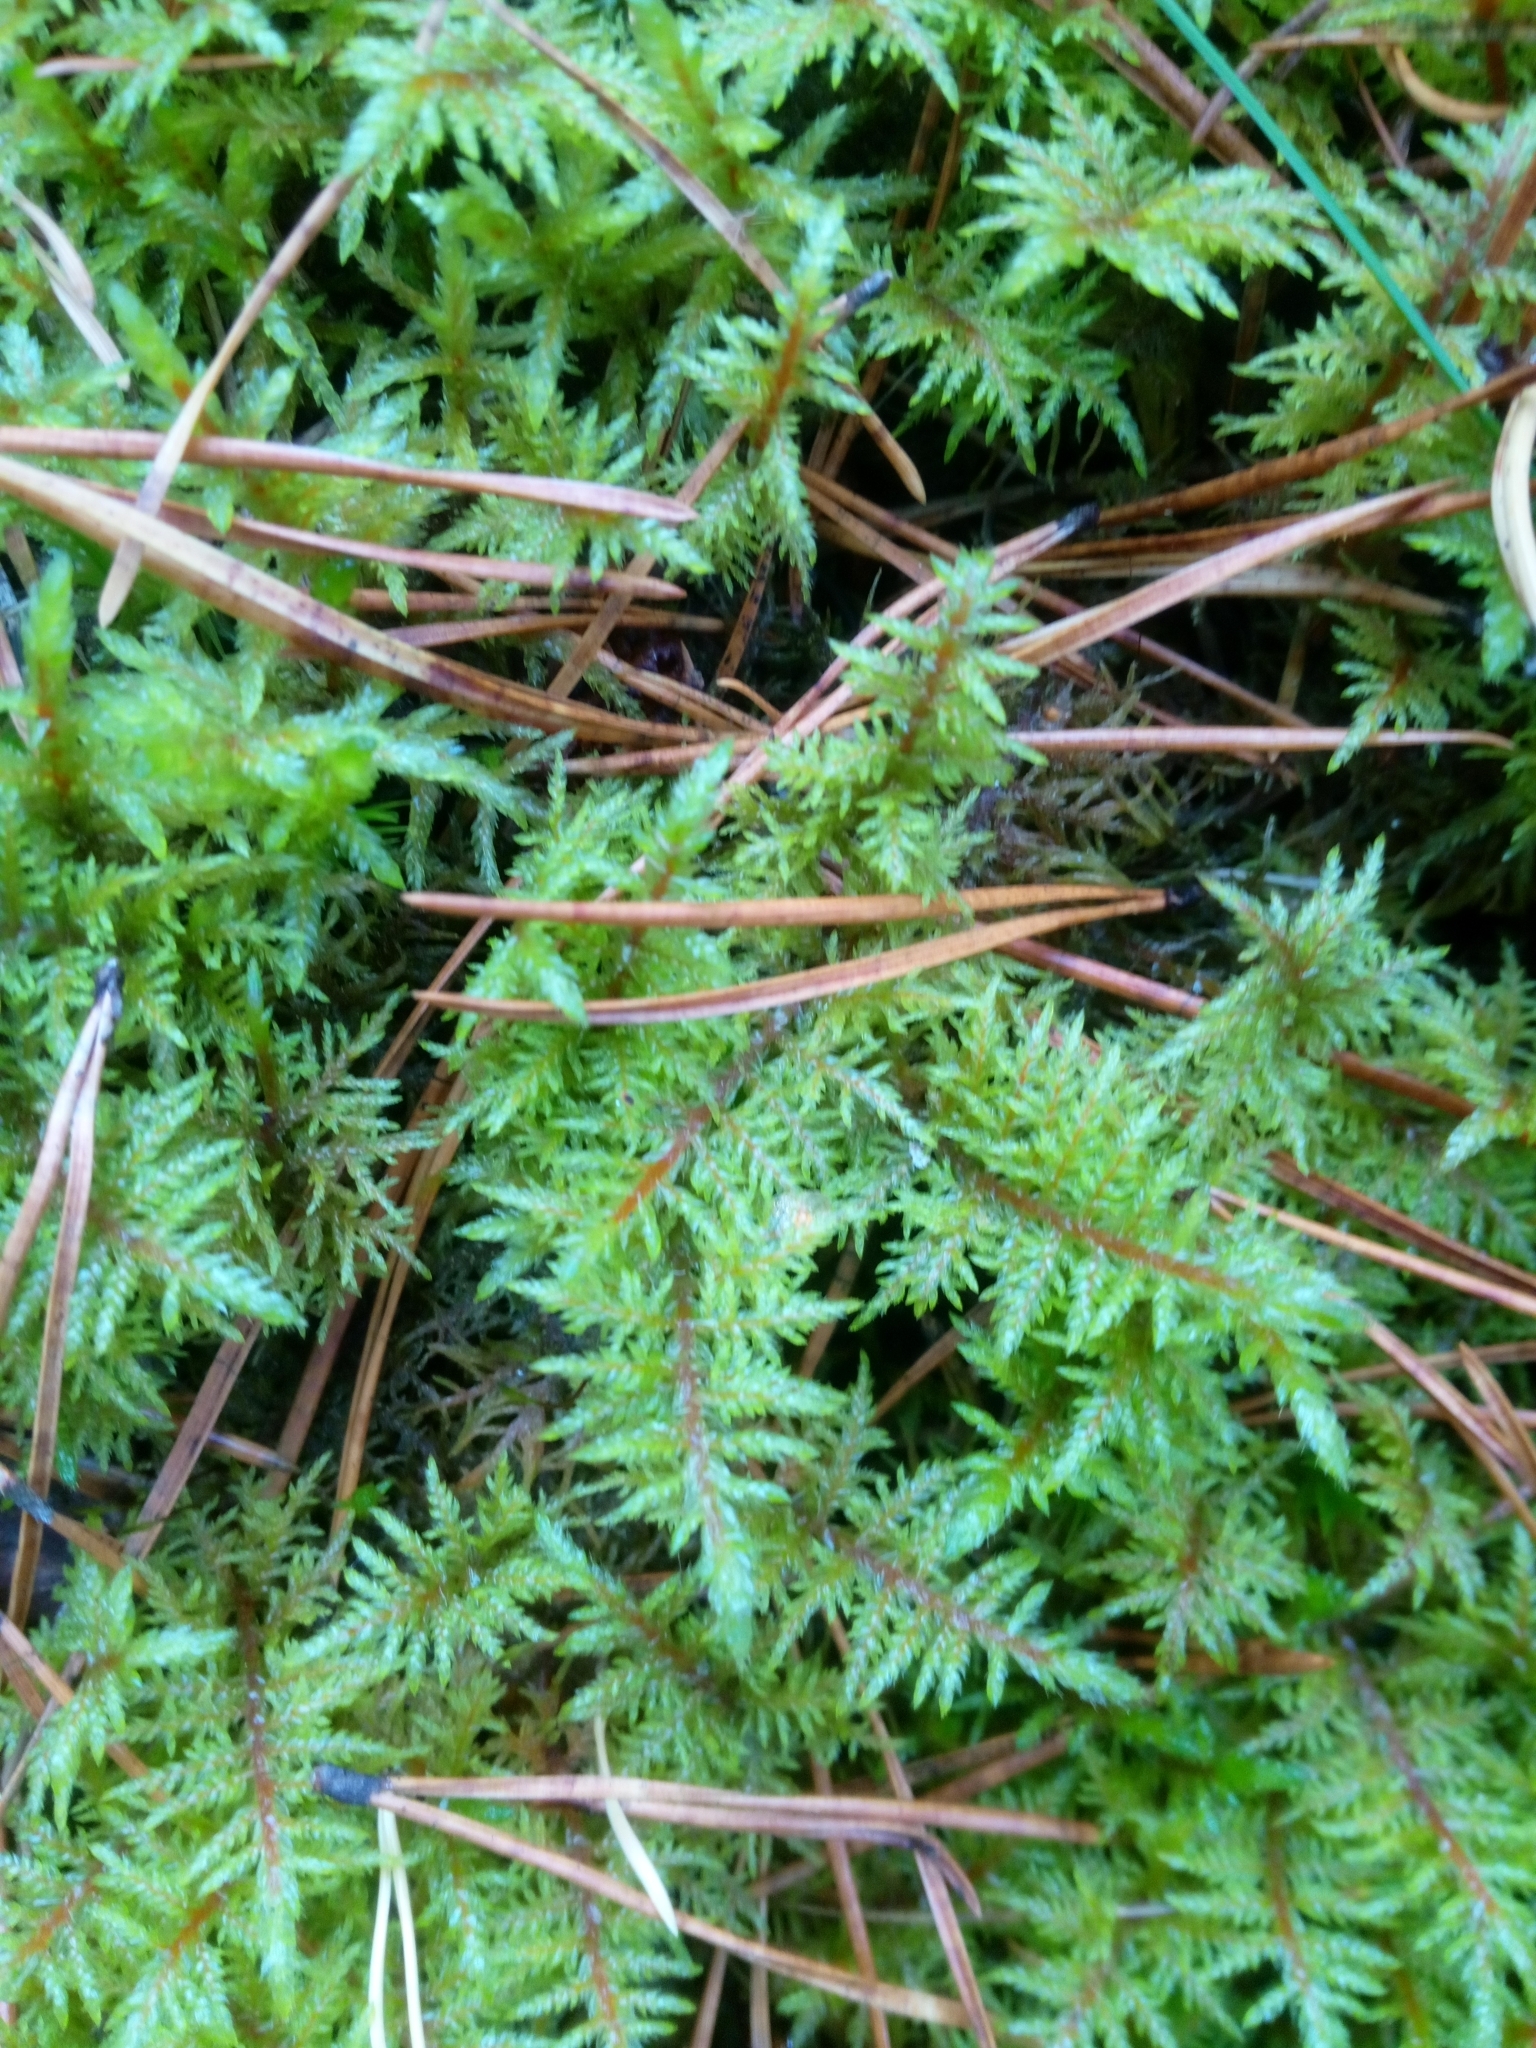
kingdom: Plantae
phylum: Bryophyta
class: Bryopsida
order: Hypnales
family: Hylocomiaceae
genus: Hylocomium
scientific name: Hylocomium splendens
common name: Stairstep moss
